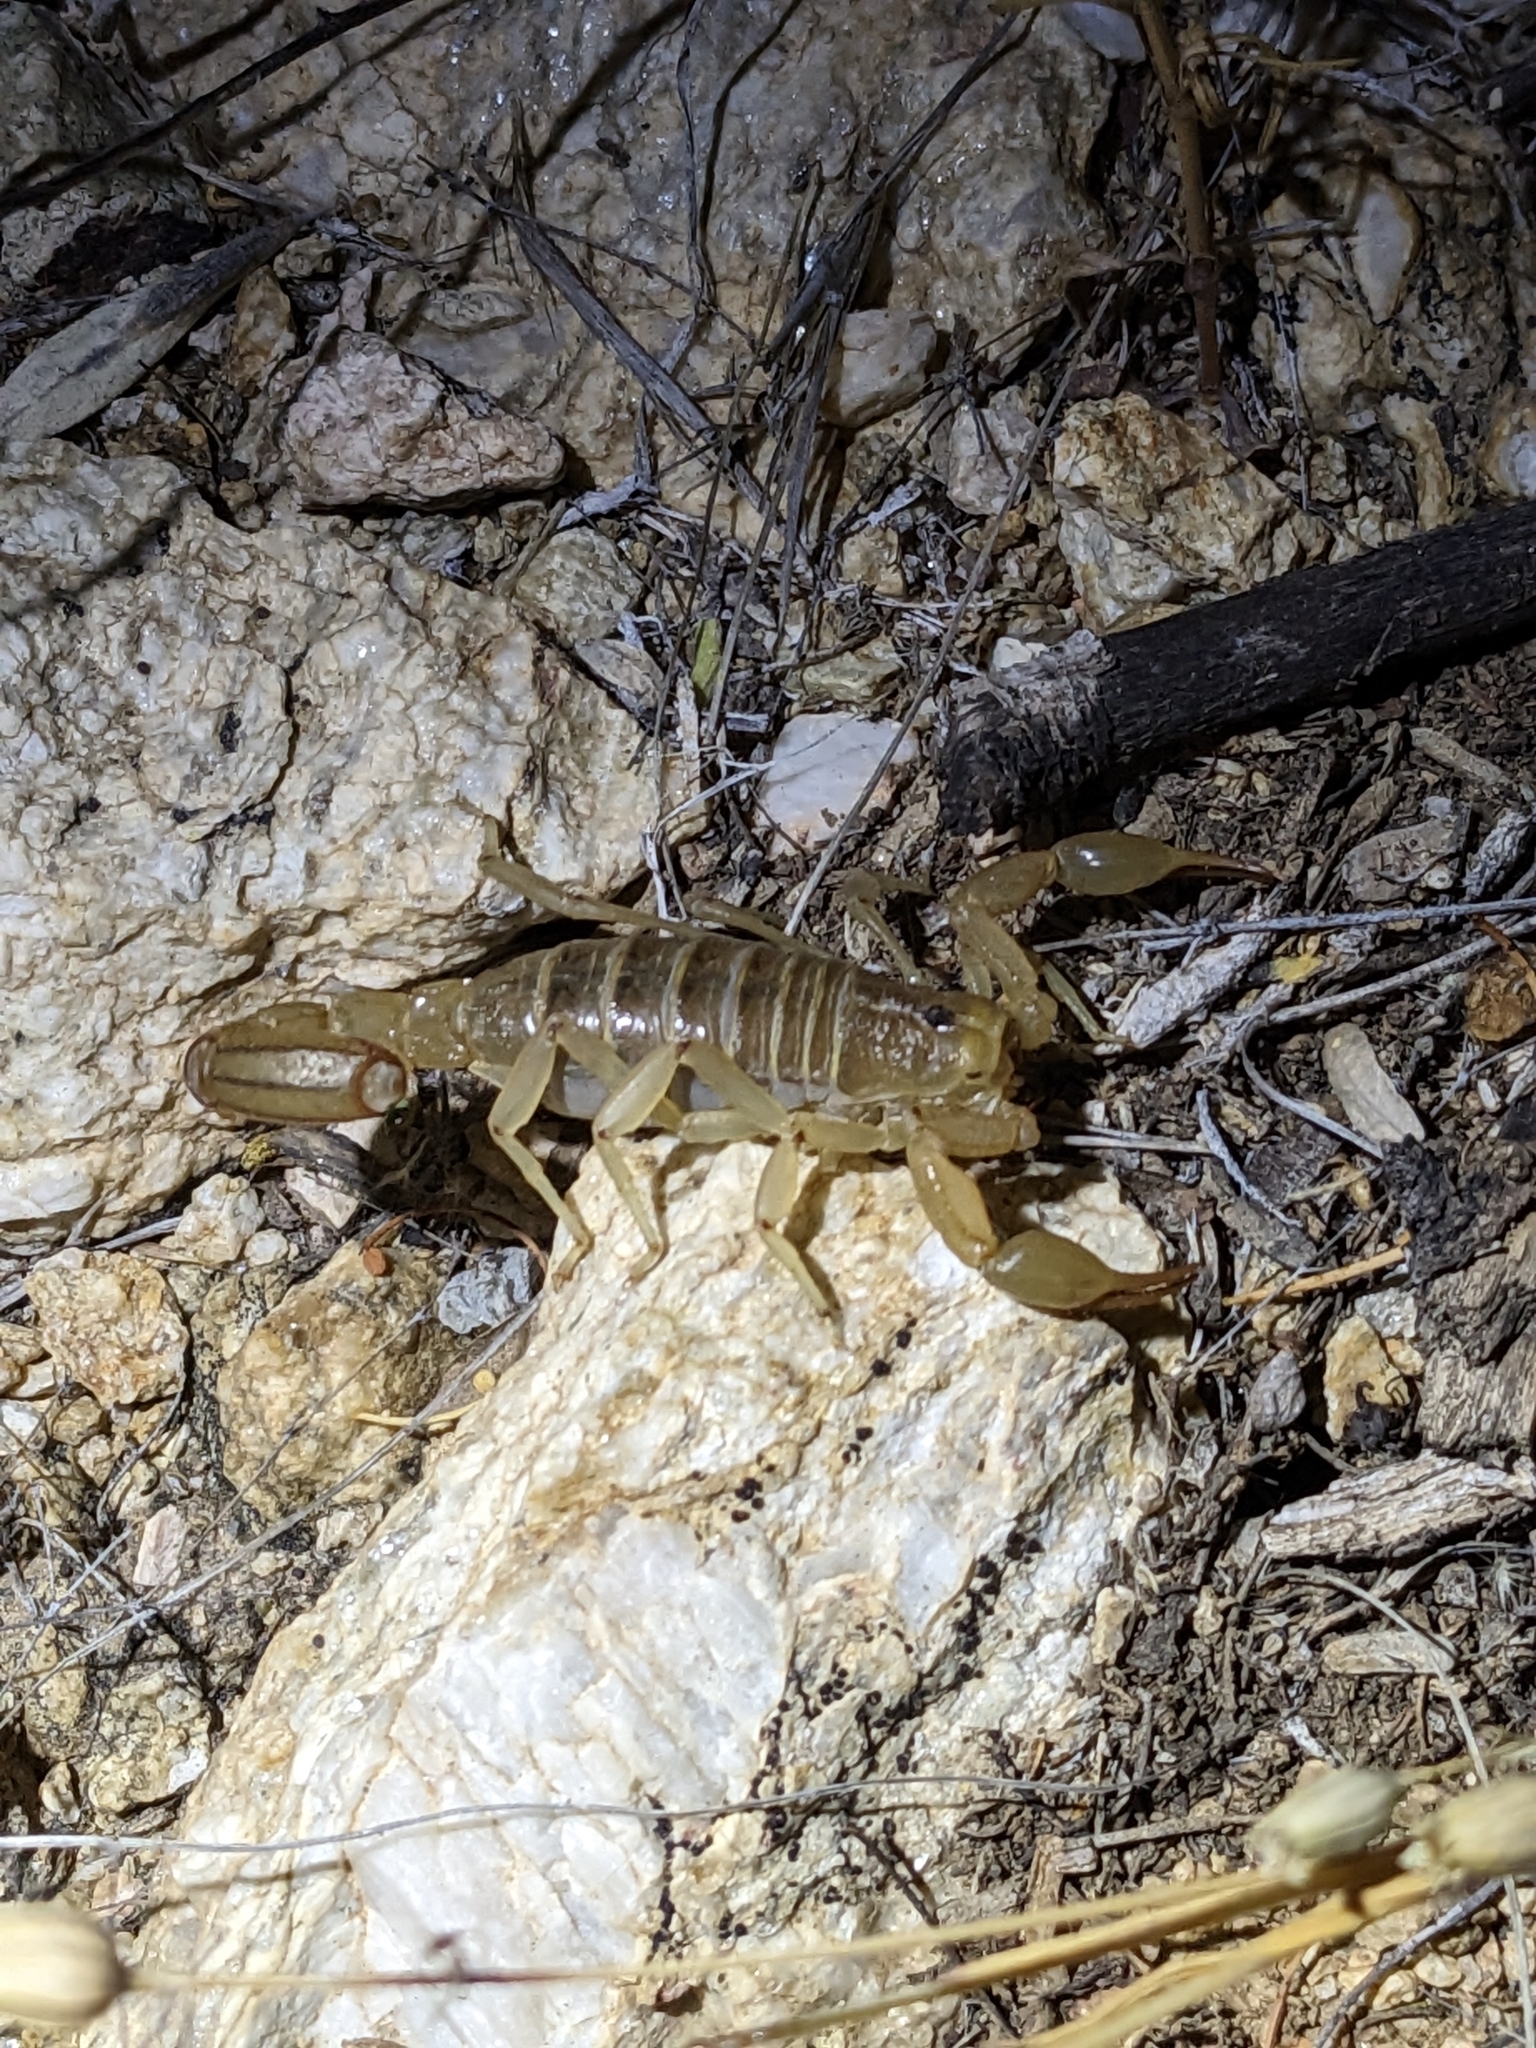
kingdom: Animalia
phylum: Arthropoda
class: Arachnida
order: Scorpiones
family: Vaejovidae
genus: Paravaejovis
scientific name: Paravaejovis spinigerus
